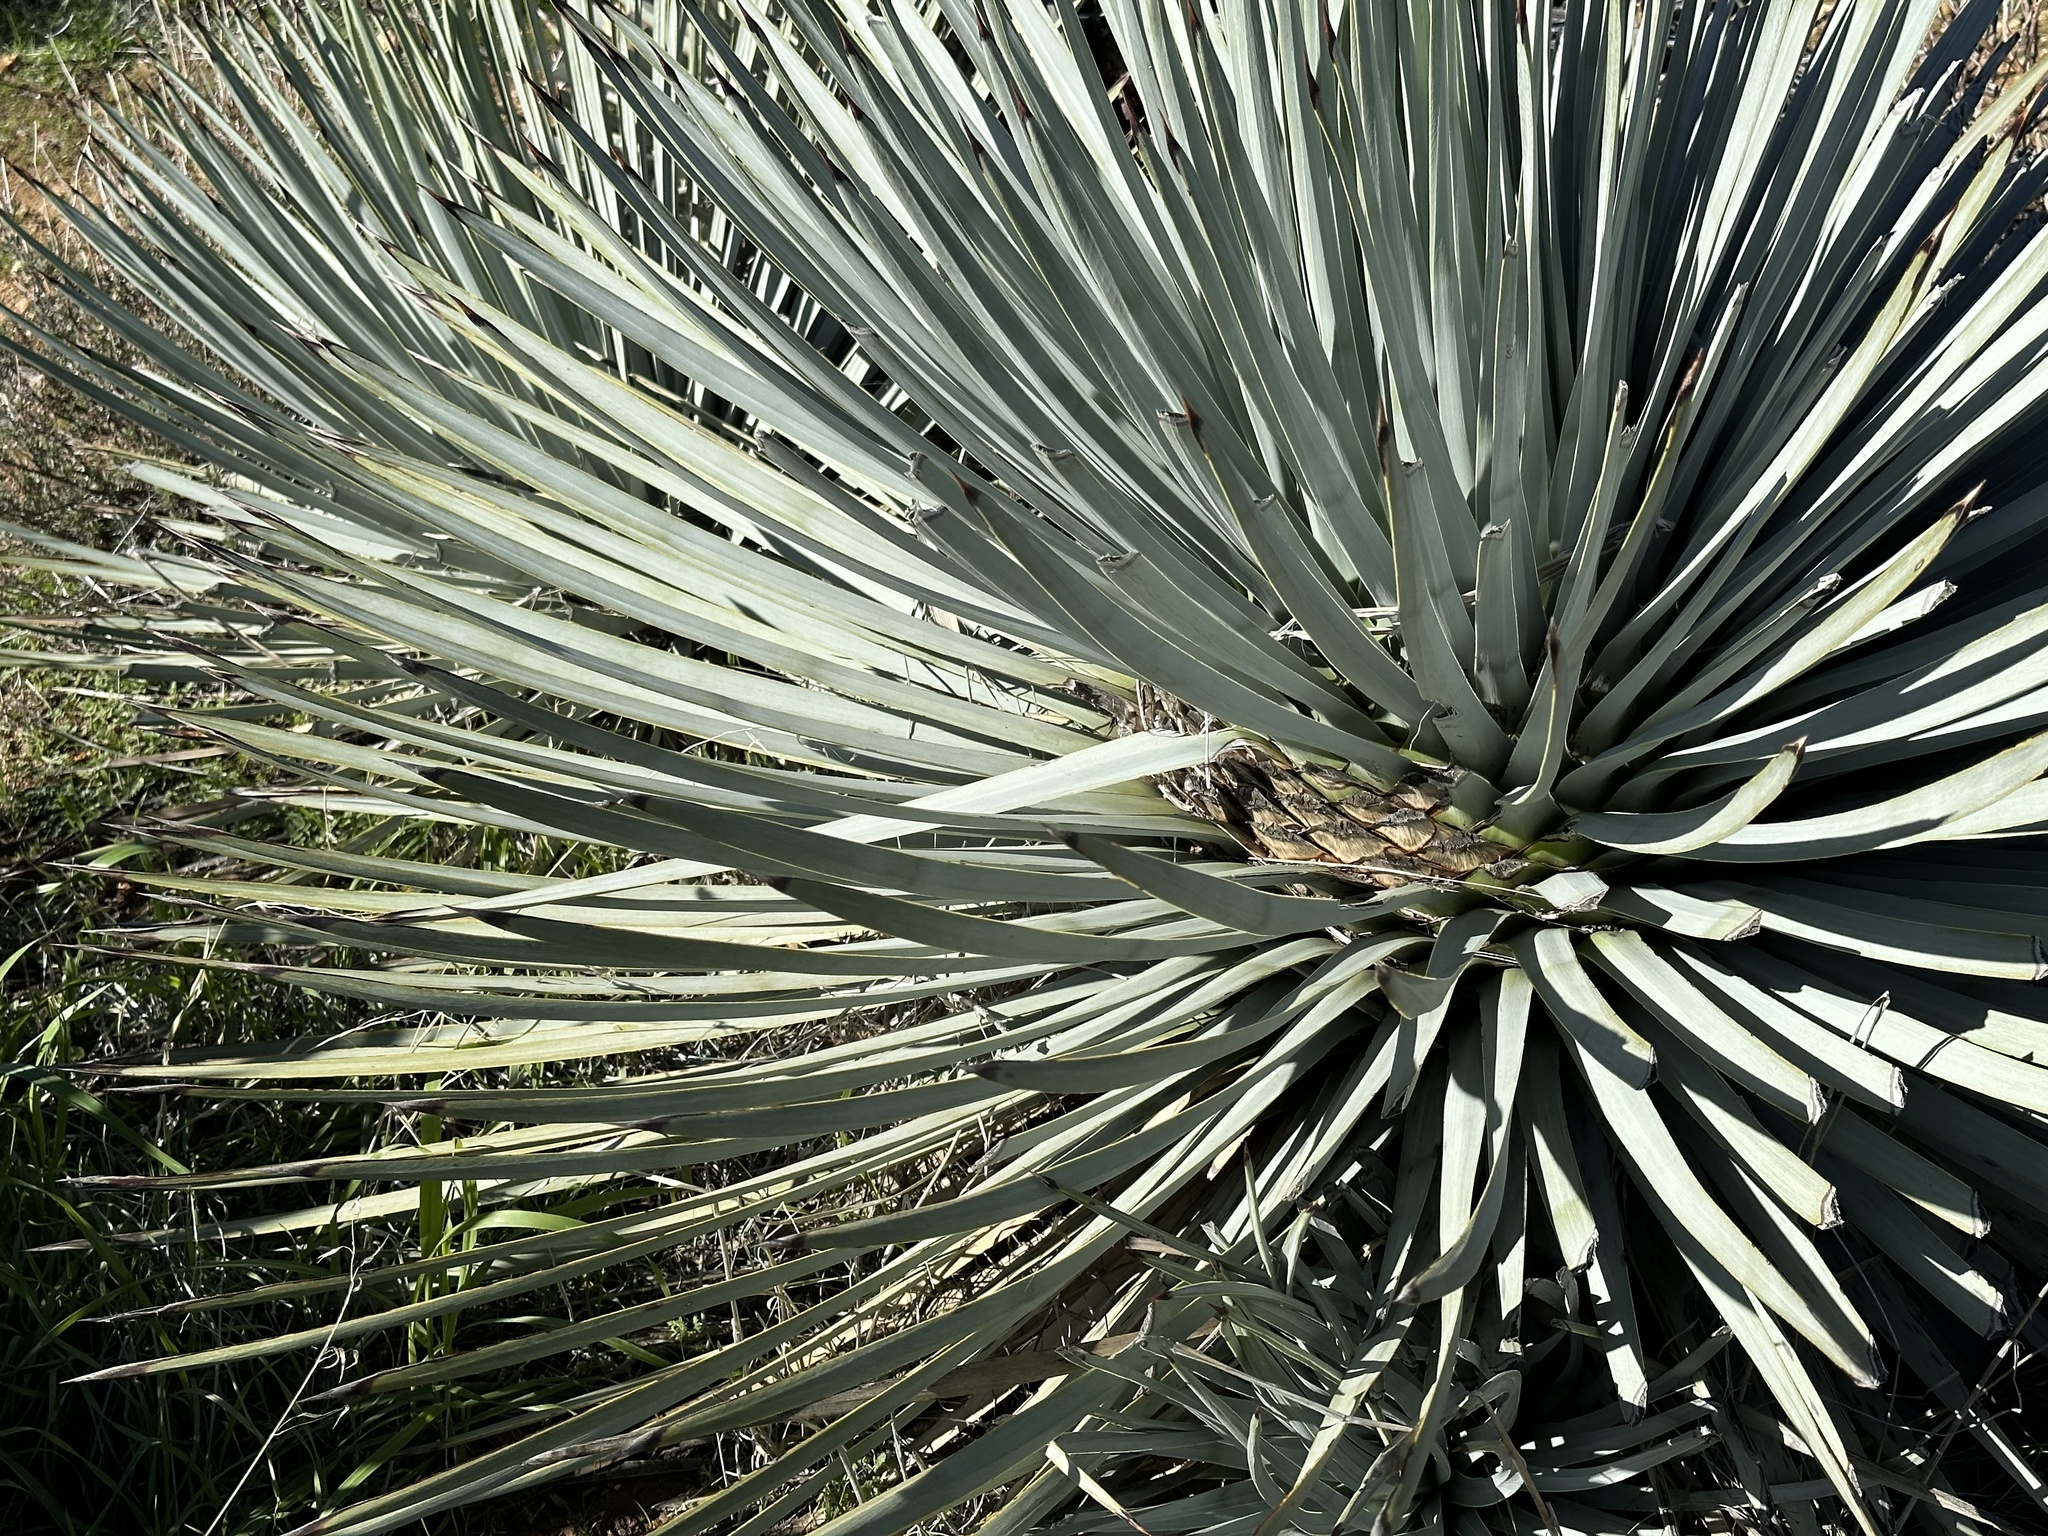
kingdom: Plantae
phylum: Tracheophyta
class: Liliopsida
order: Asparagales
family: Asparagaceae
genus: Hesperoyucca
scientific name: Hesperoyucca whipplei
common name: Our lord's-candle
